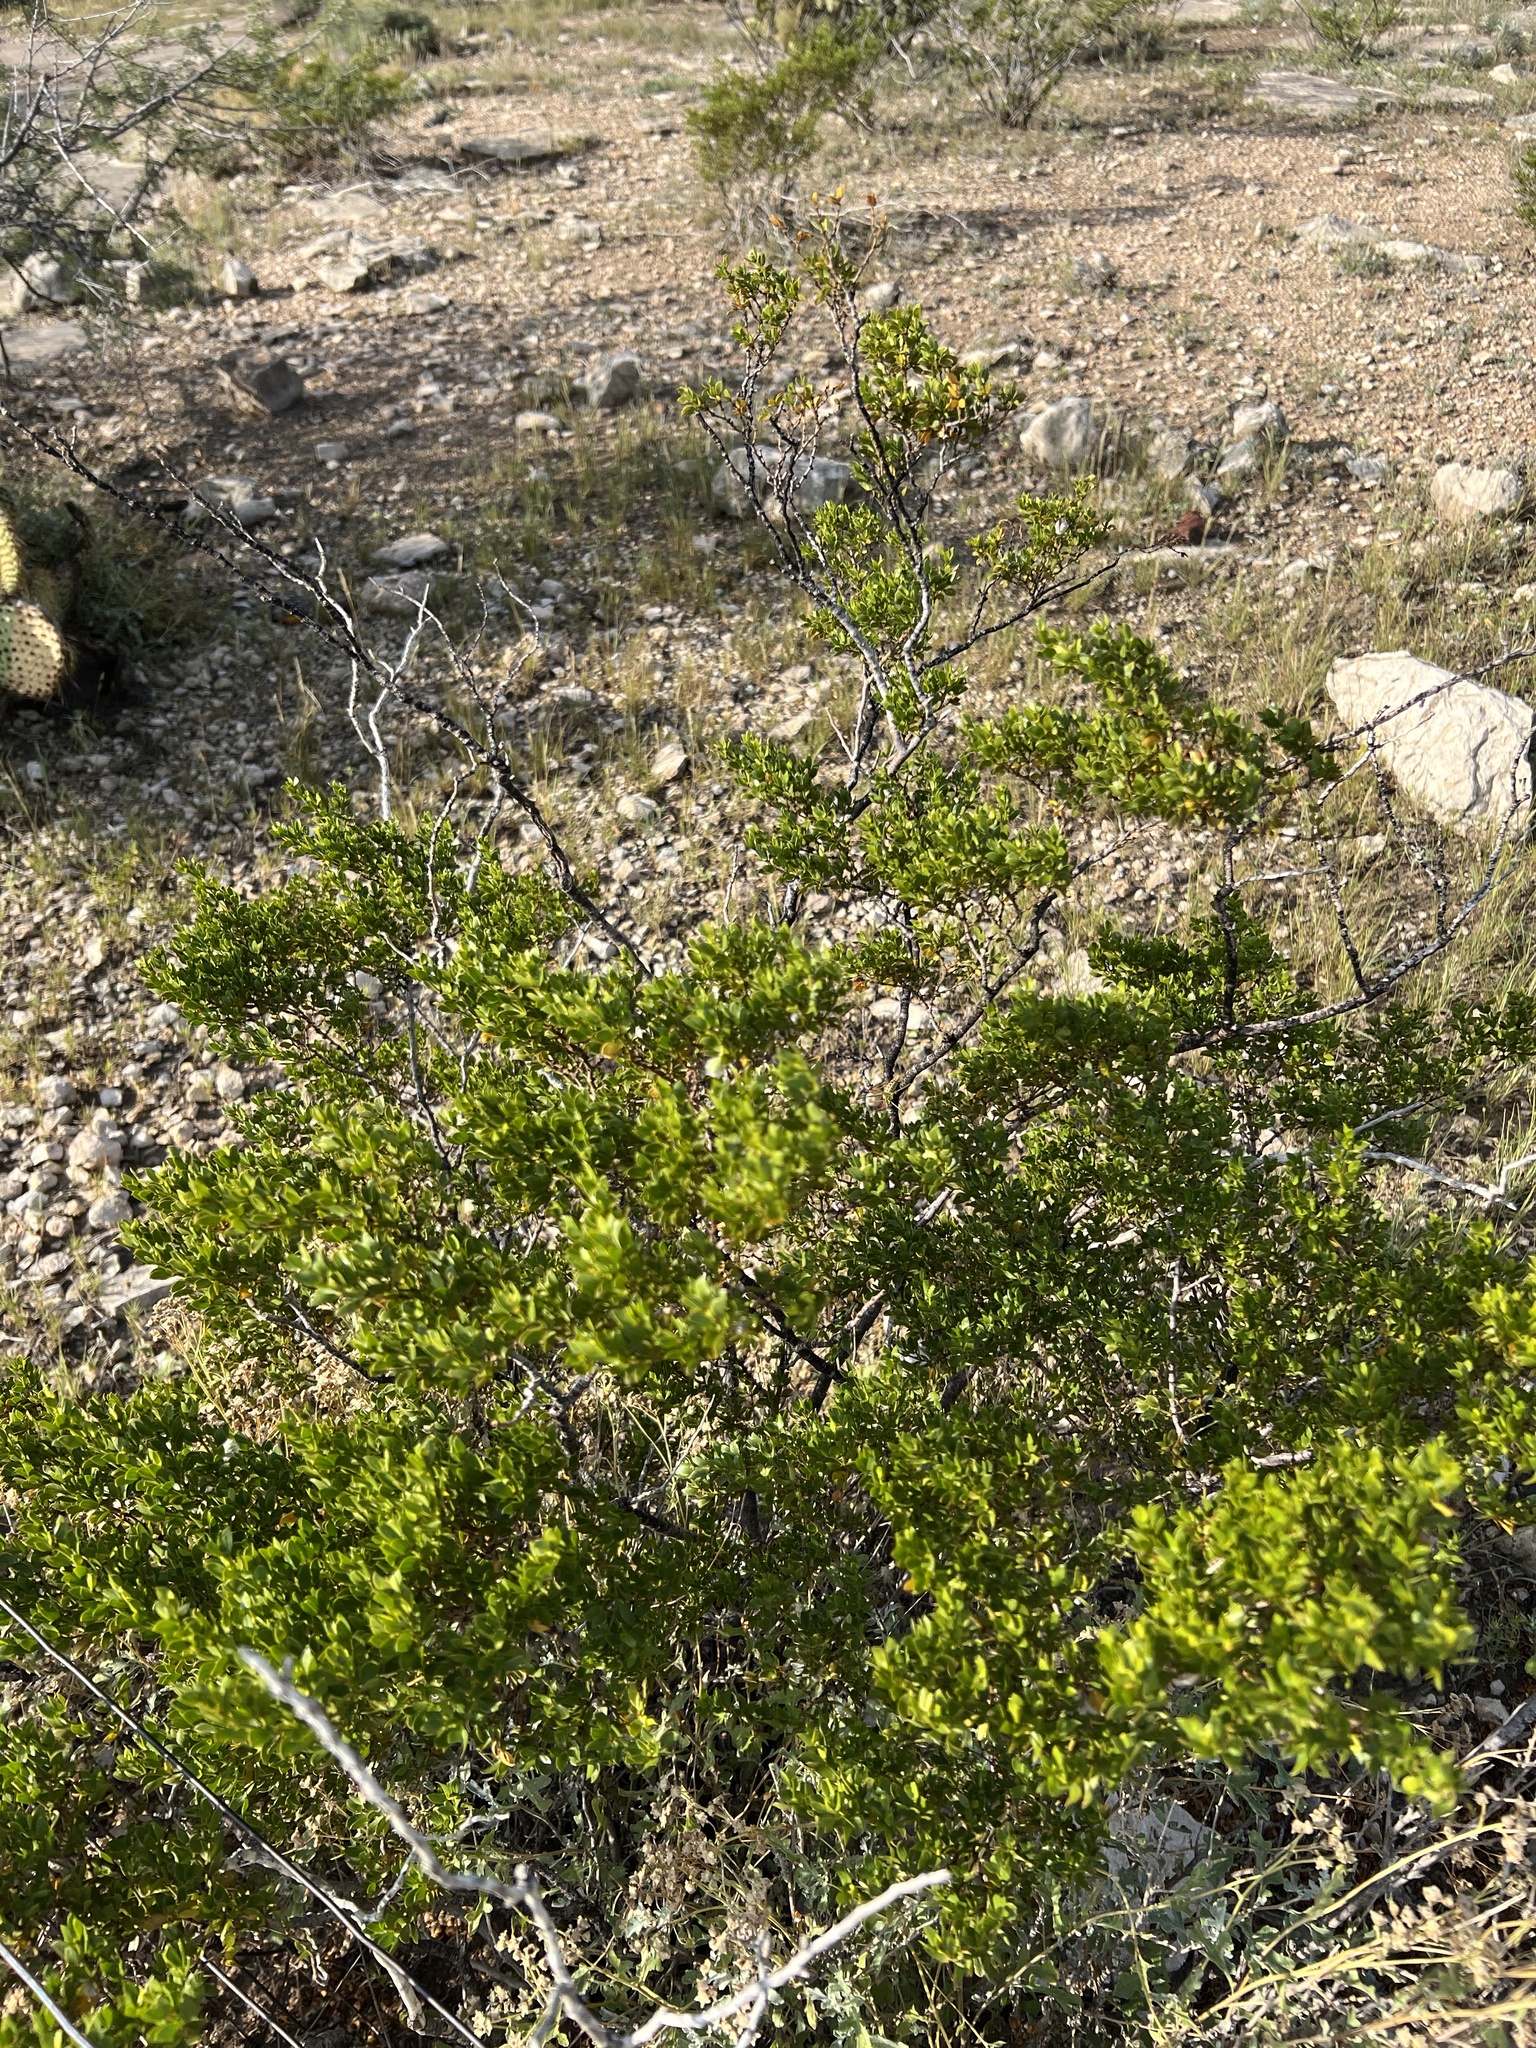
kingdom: Plantae
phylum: Tracheophyta
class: Magnoliopsida
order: Zygophyllales
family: Zygophyllaceae
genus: Larrea
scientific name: Larrea tridentata
